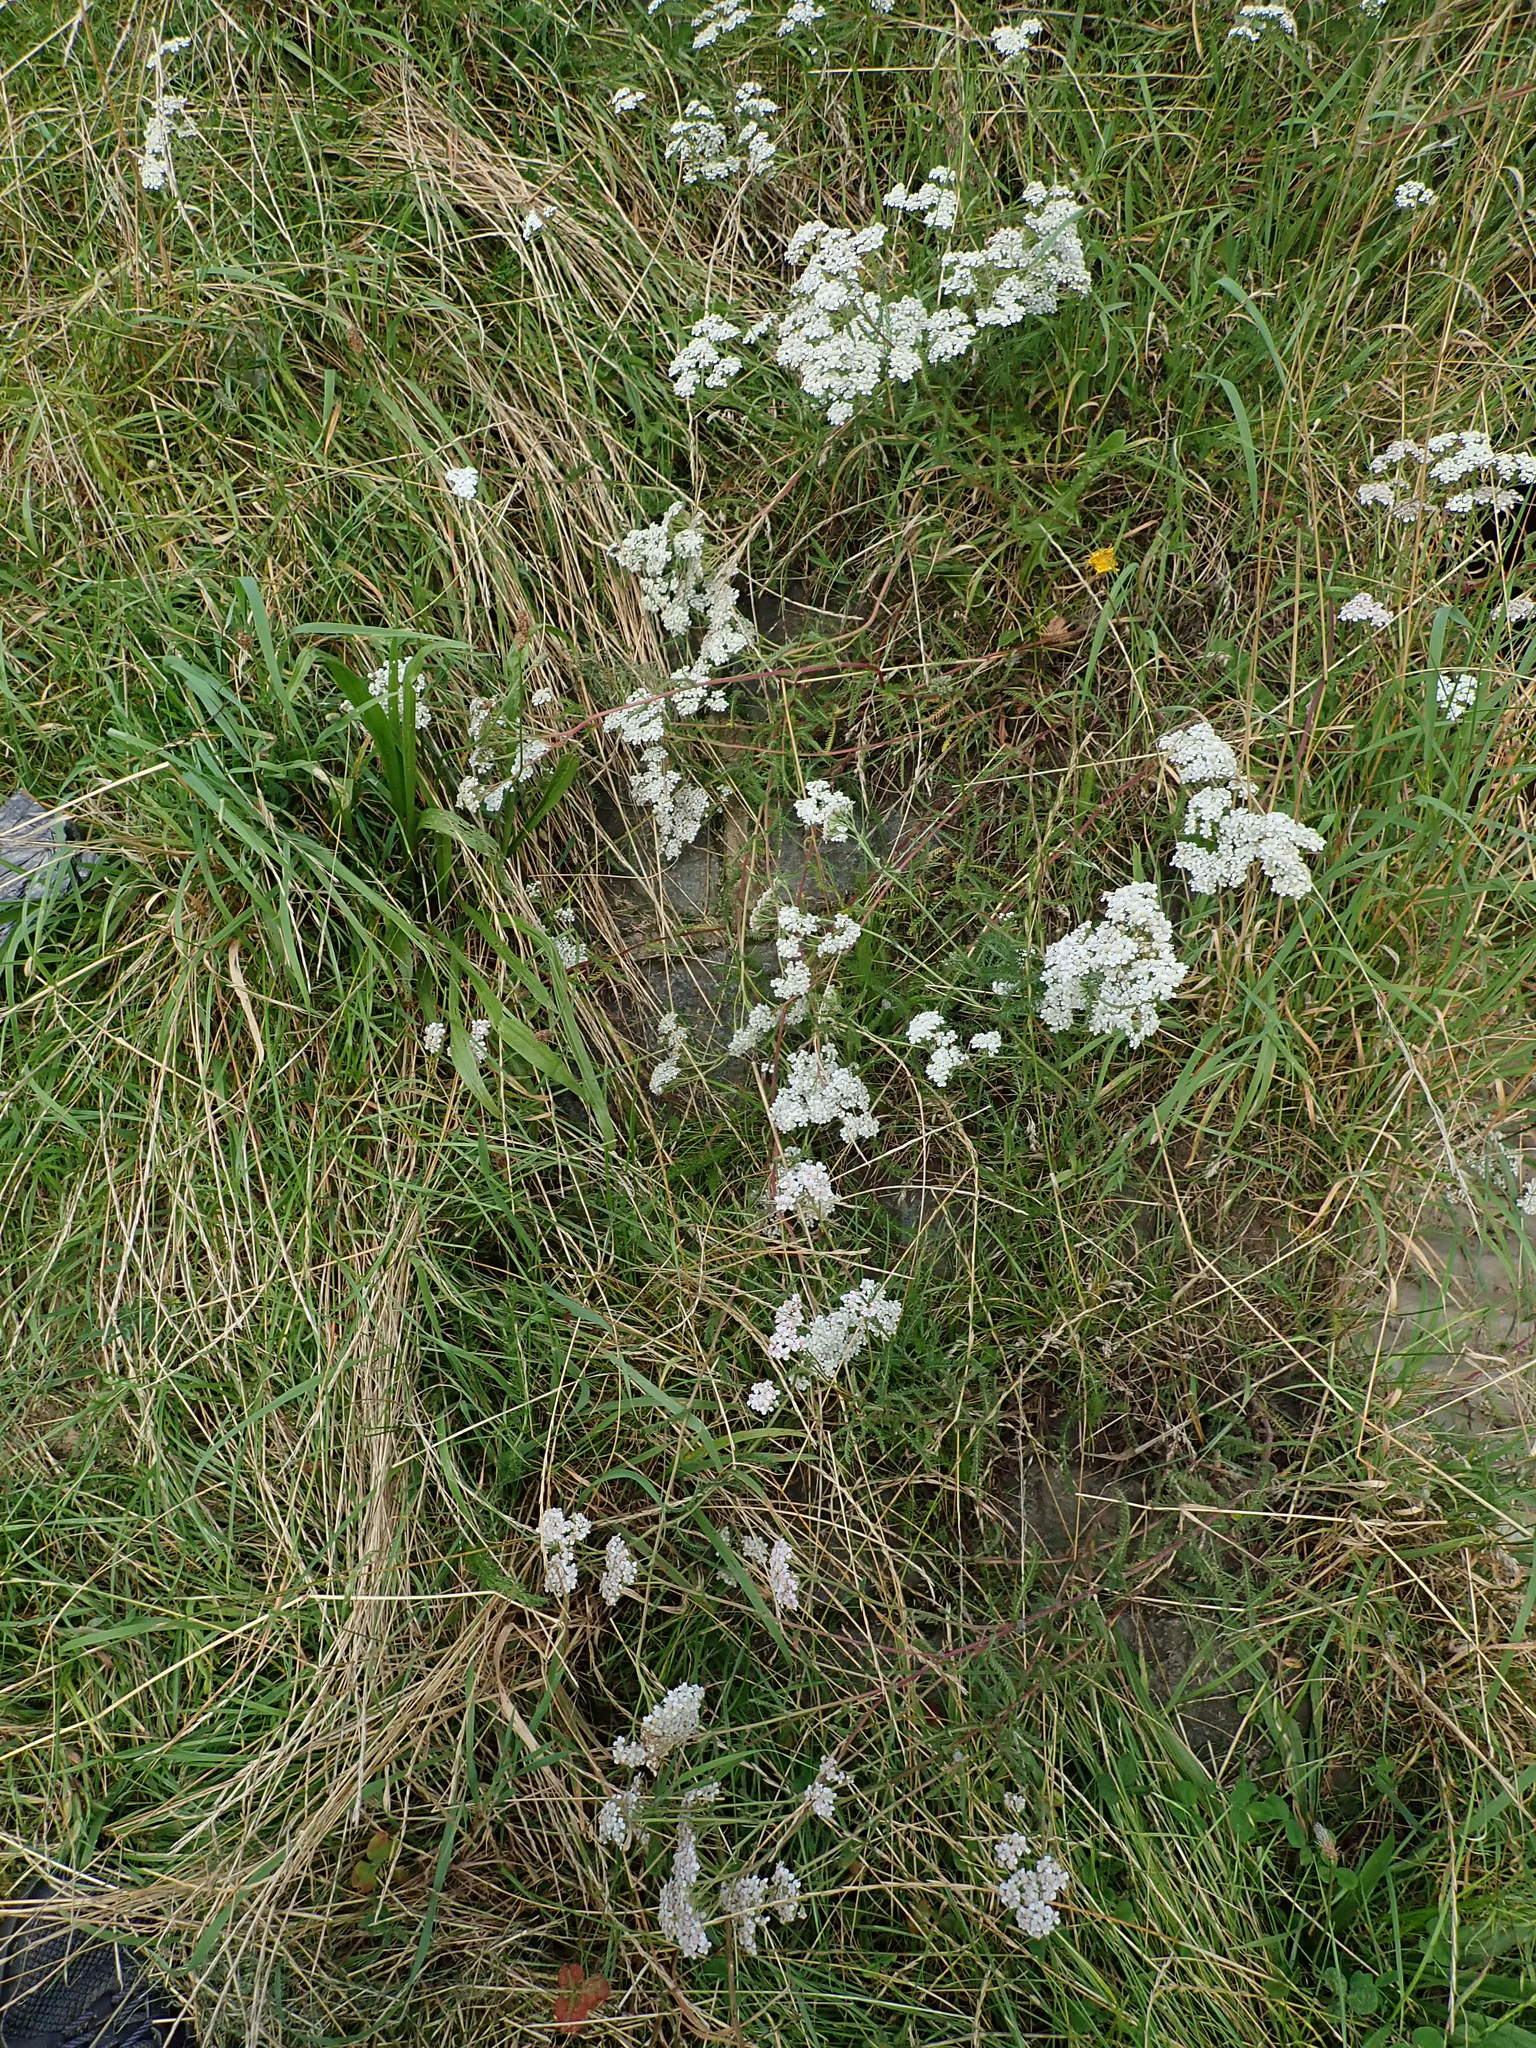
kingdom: Plantae
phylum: Tracheophyta
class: Magnoliopsida
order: Asterales
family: Asteraceae
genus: Achillea
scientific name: Achillea millefolium
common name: Yarrow
